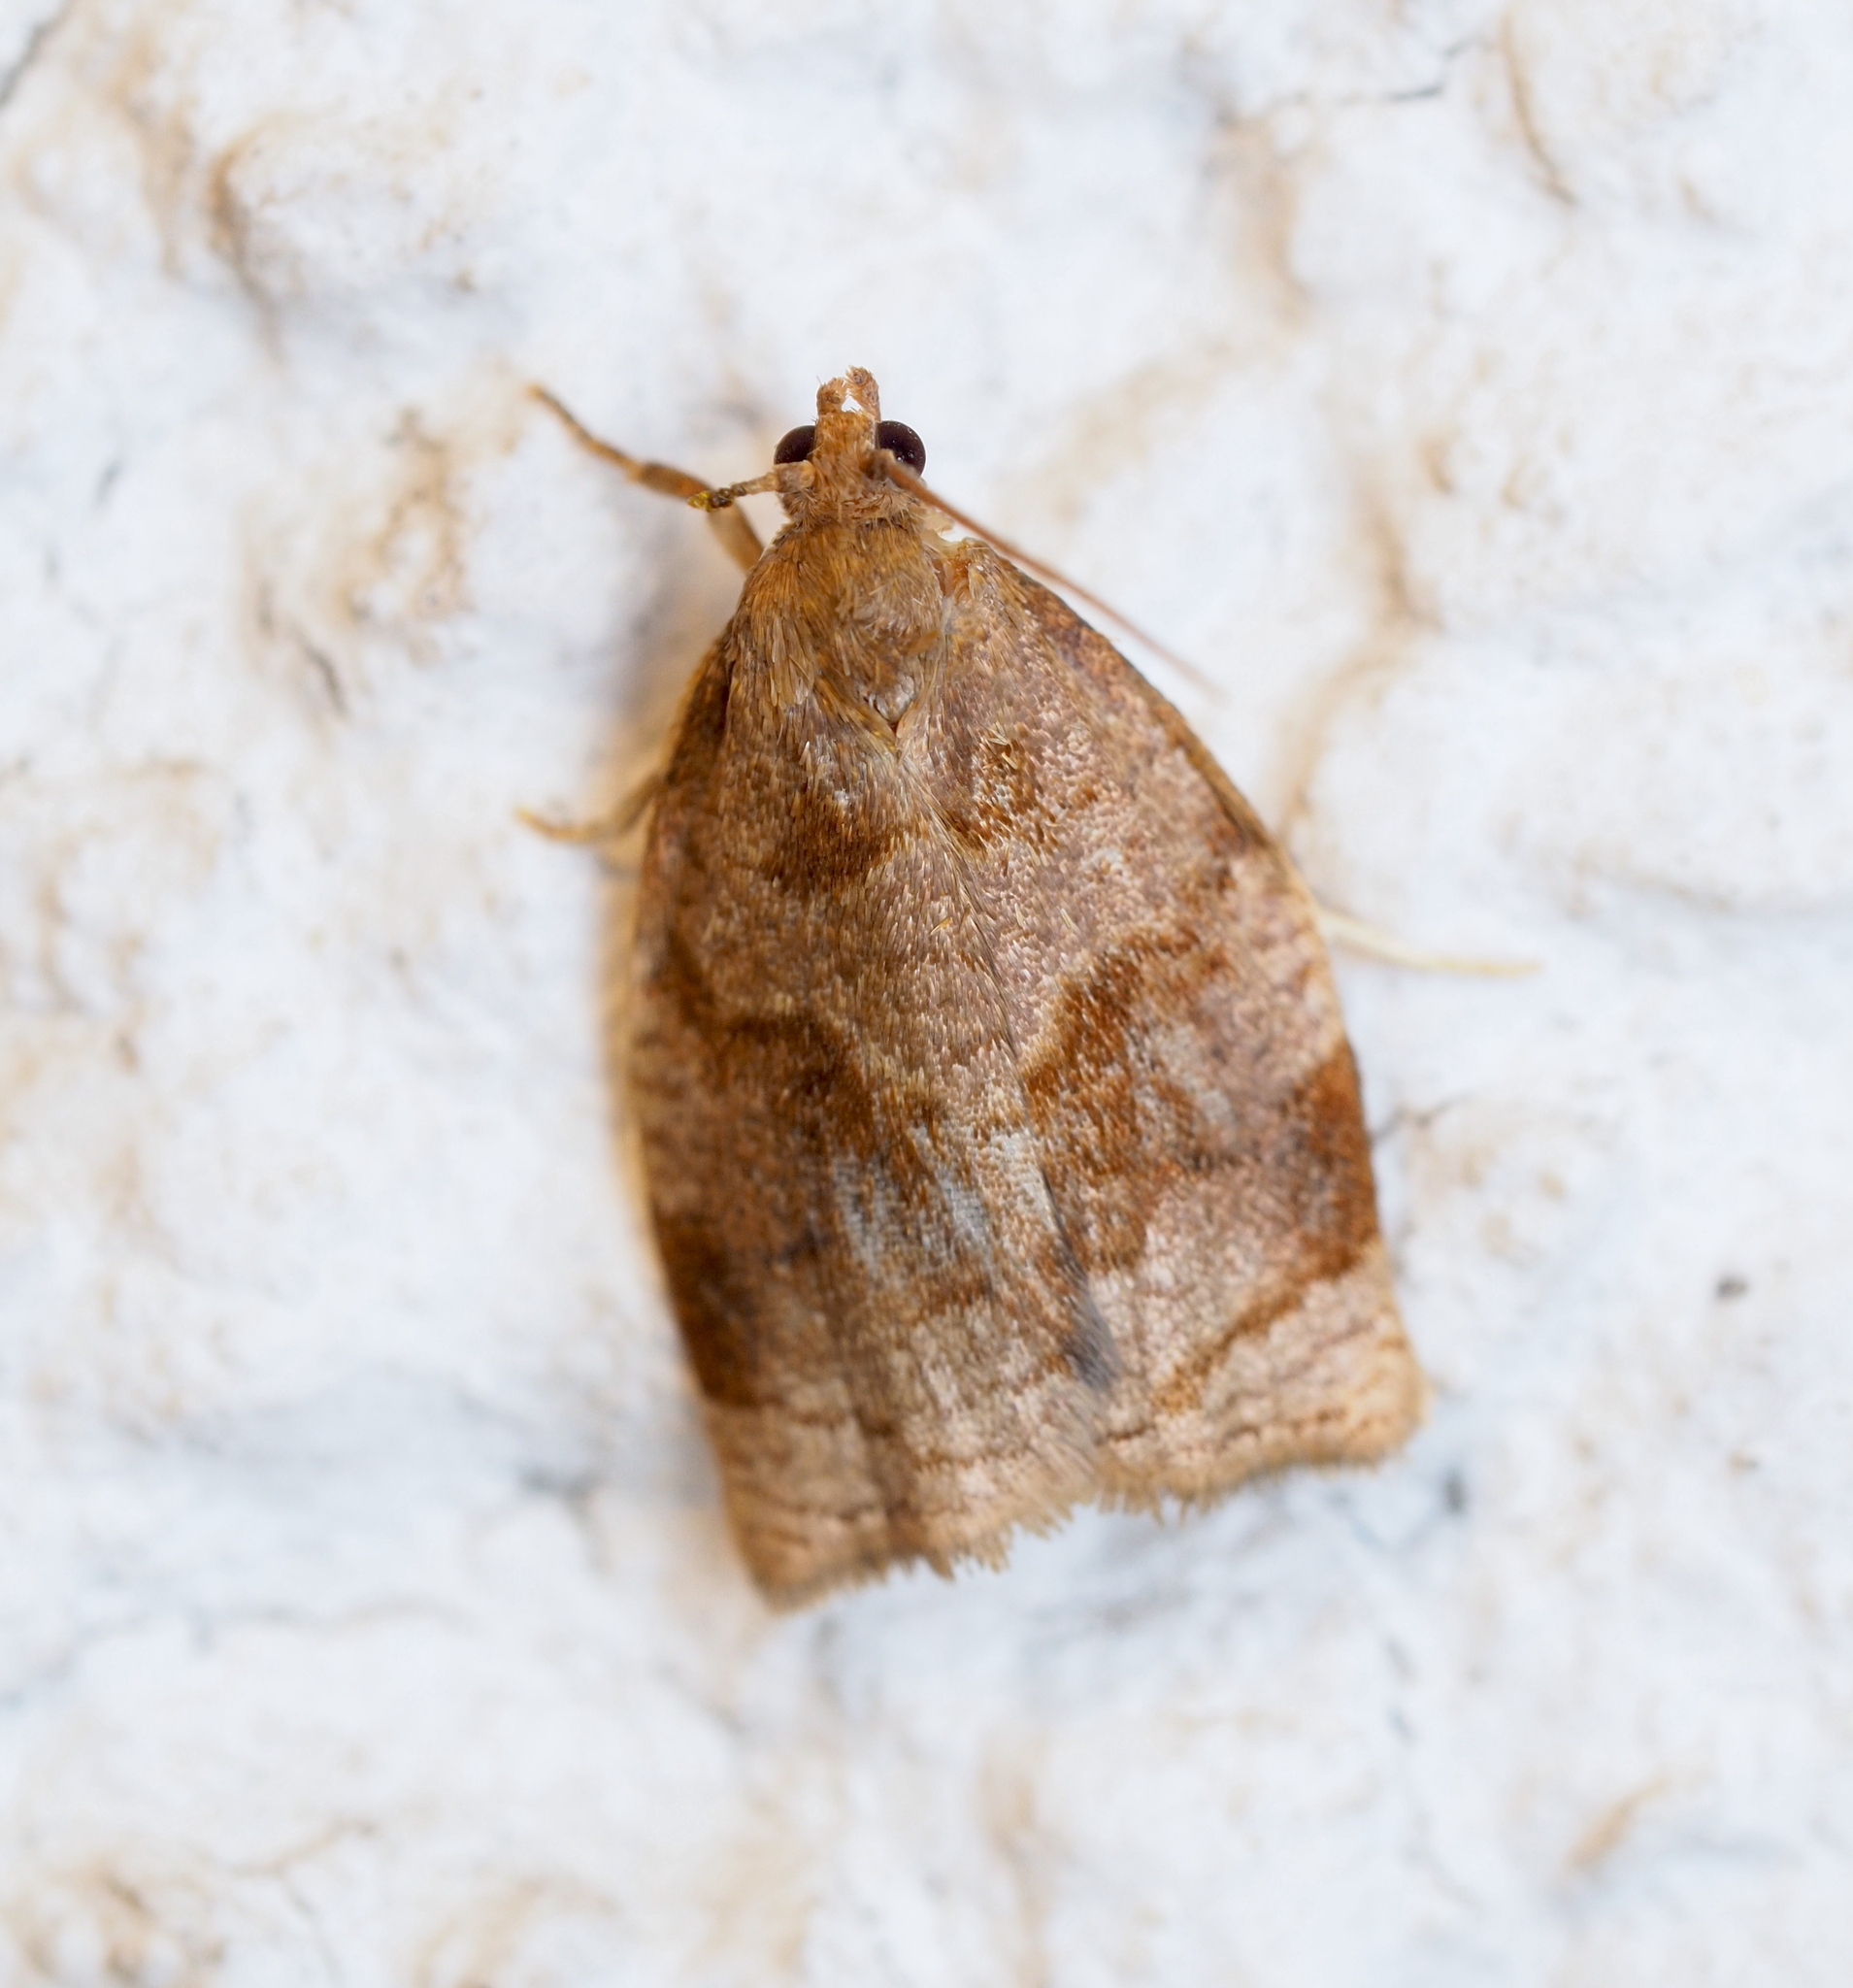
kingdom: Animalia
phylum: Arthropoda
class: Insecta
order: Lepidoptera
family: Tortricidae
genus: Archips
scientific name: Archips rosana
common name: Rose tortrix
